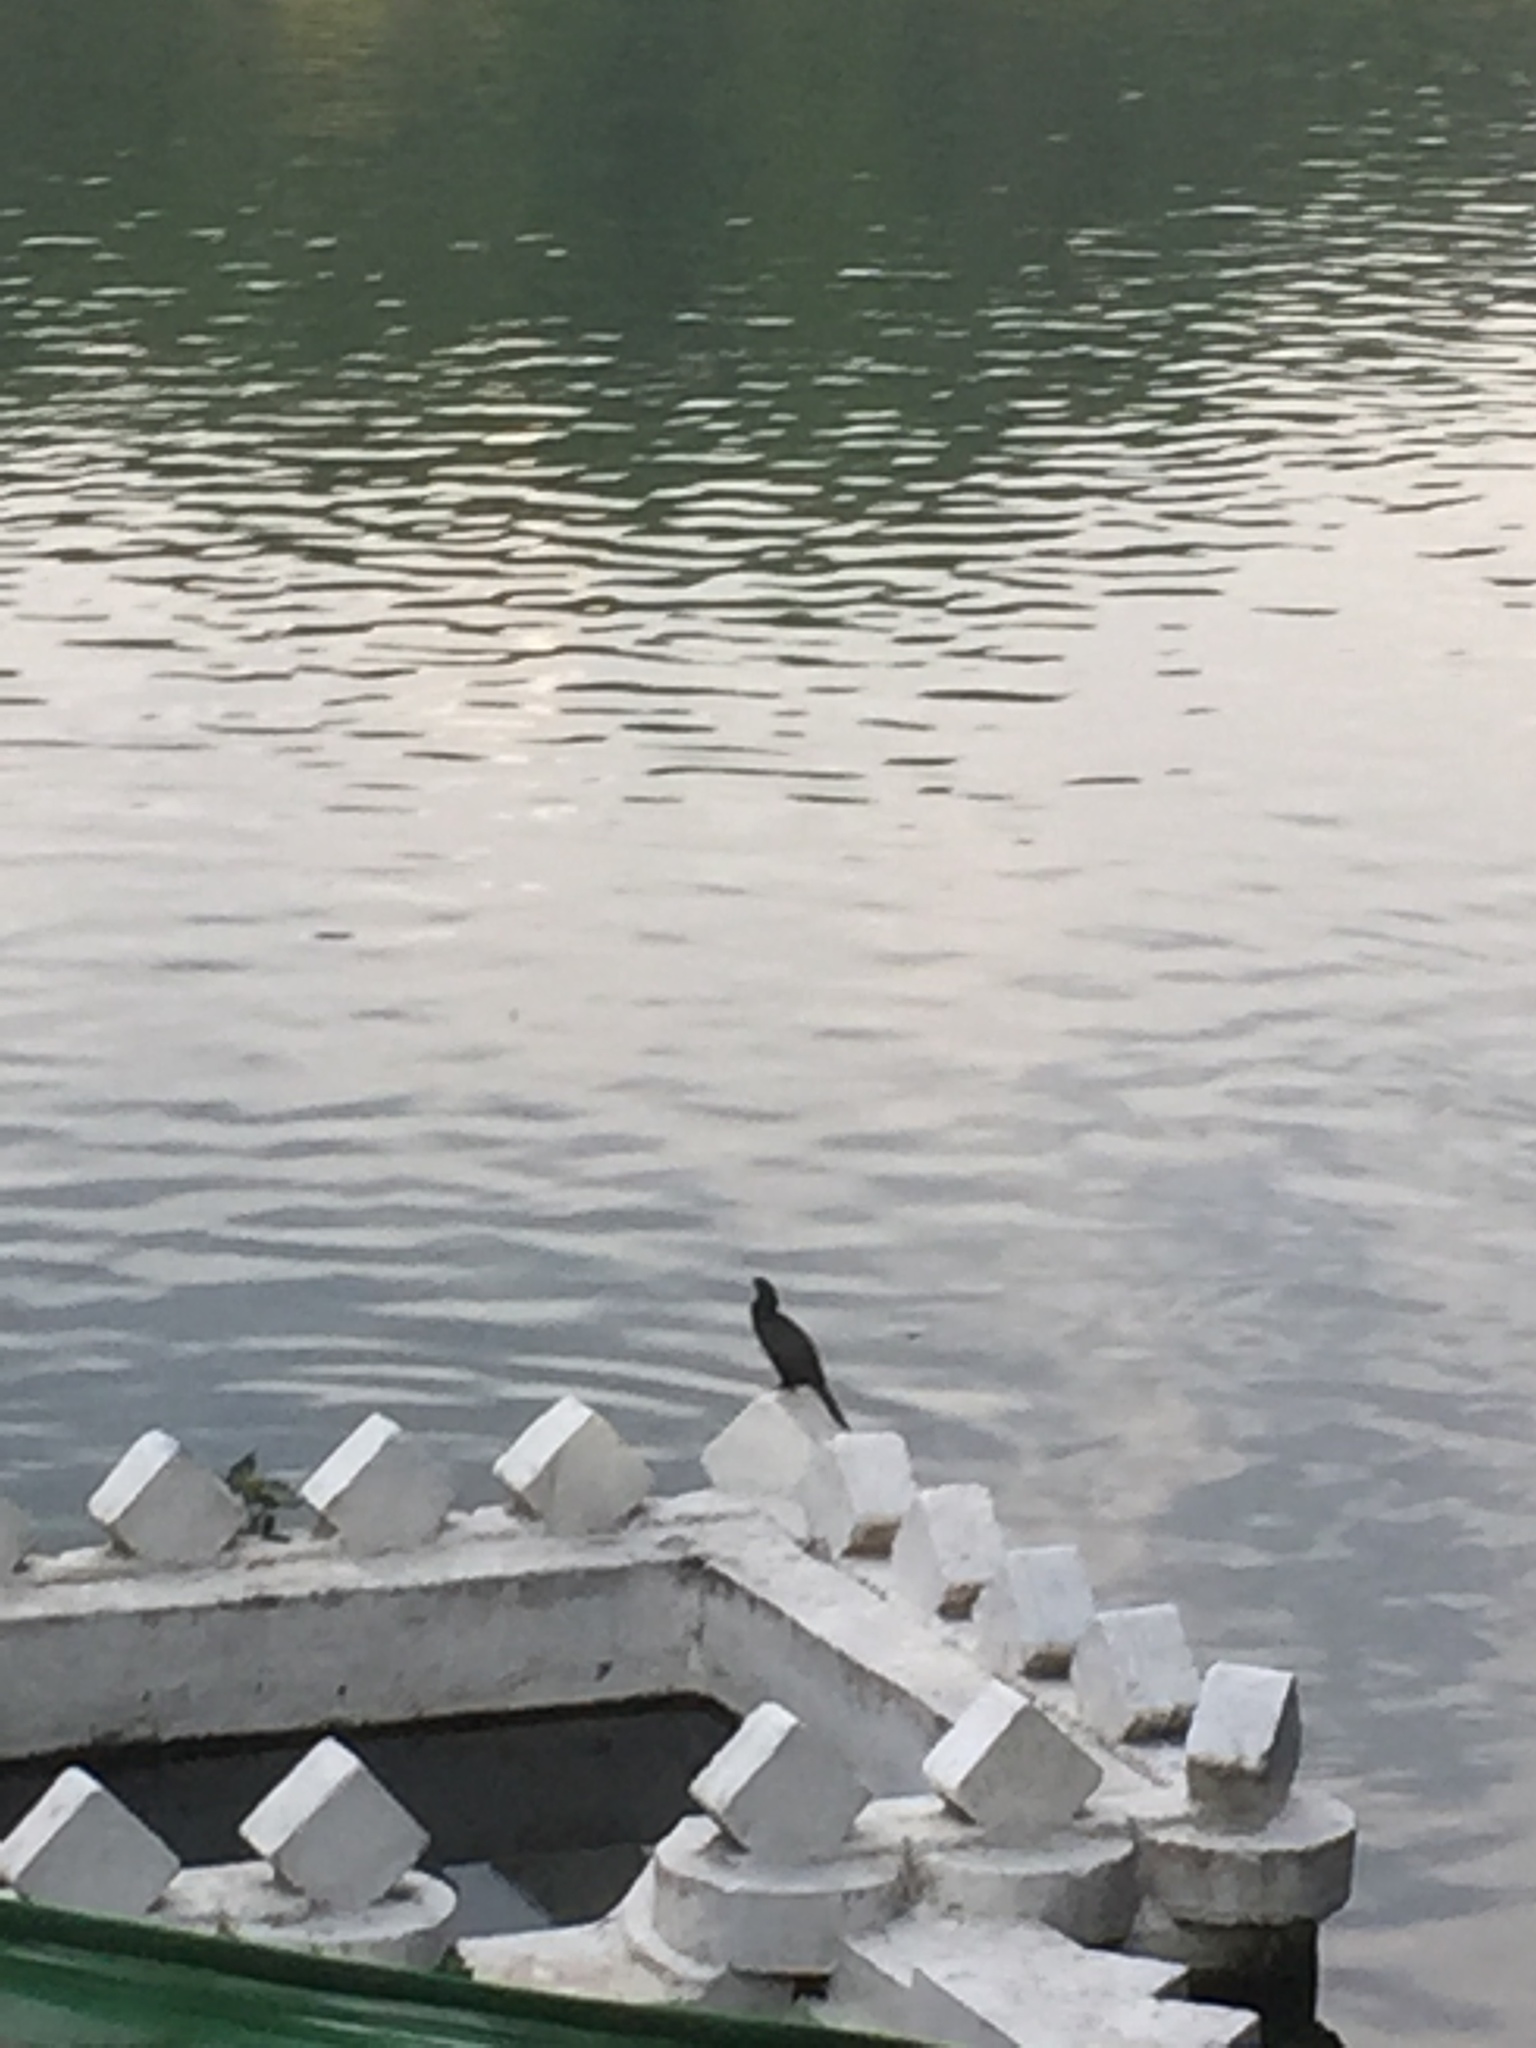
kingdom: Animalia
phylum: Chordata
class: Aves
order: Suliformes
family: Phalacrocoracidae
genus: Microcarbo
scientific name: Microcarbo niger
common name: Little cormorant
